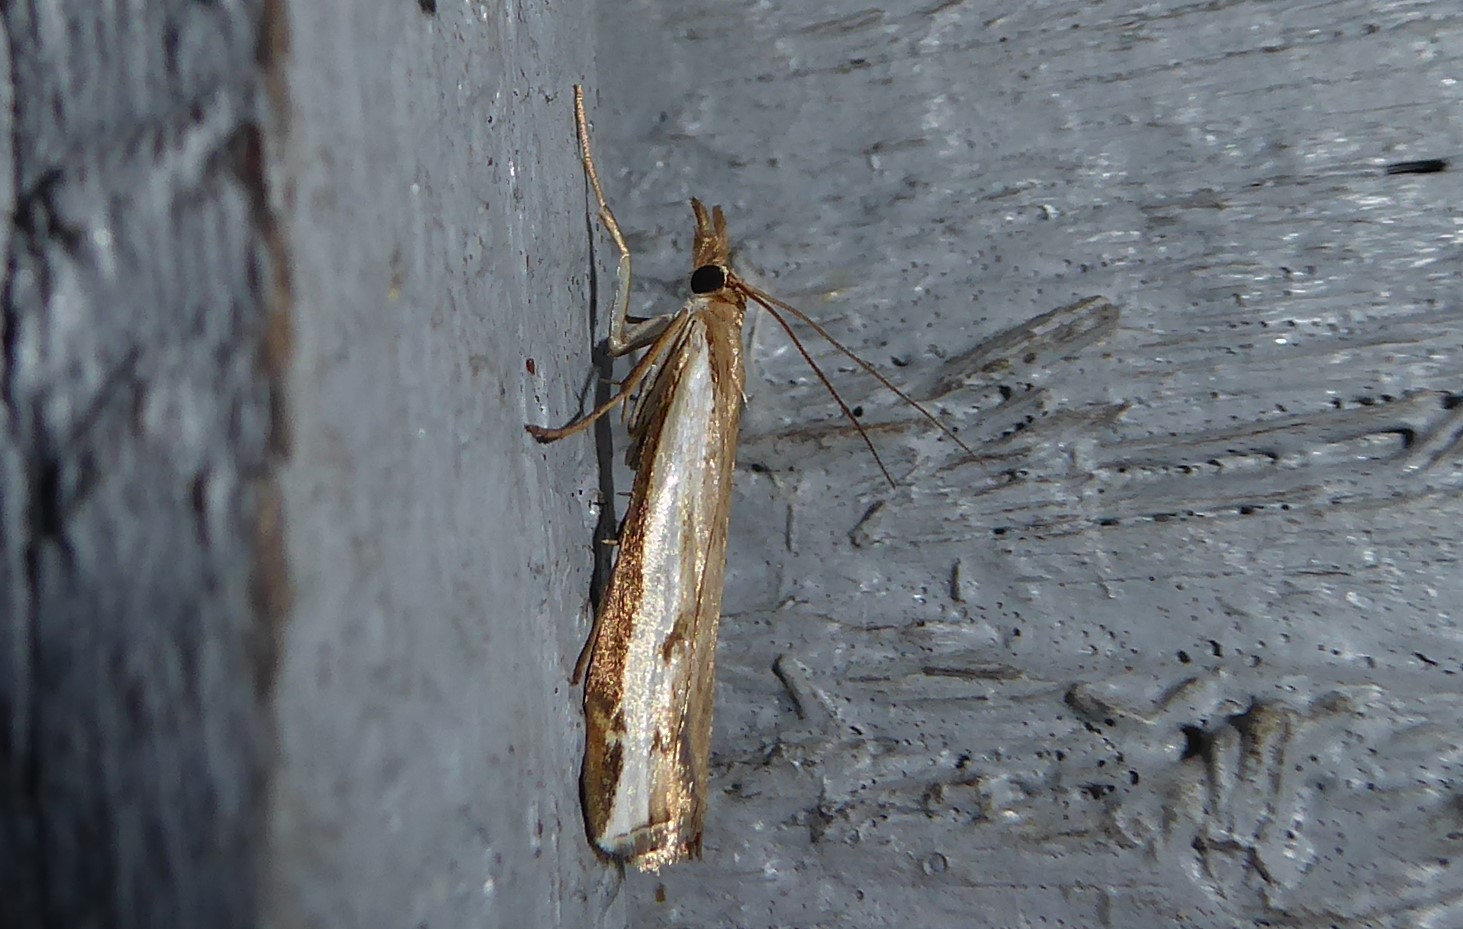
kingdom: Animalia
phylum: Arthropoda
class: Insecta
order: Lepidoptera
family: Crambidae
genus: Orocrambus
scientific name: Orocrambus flexuosellus
